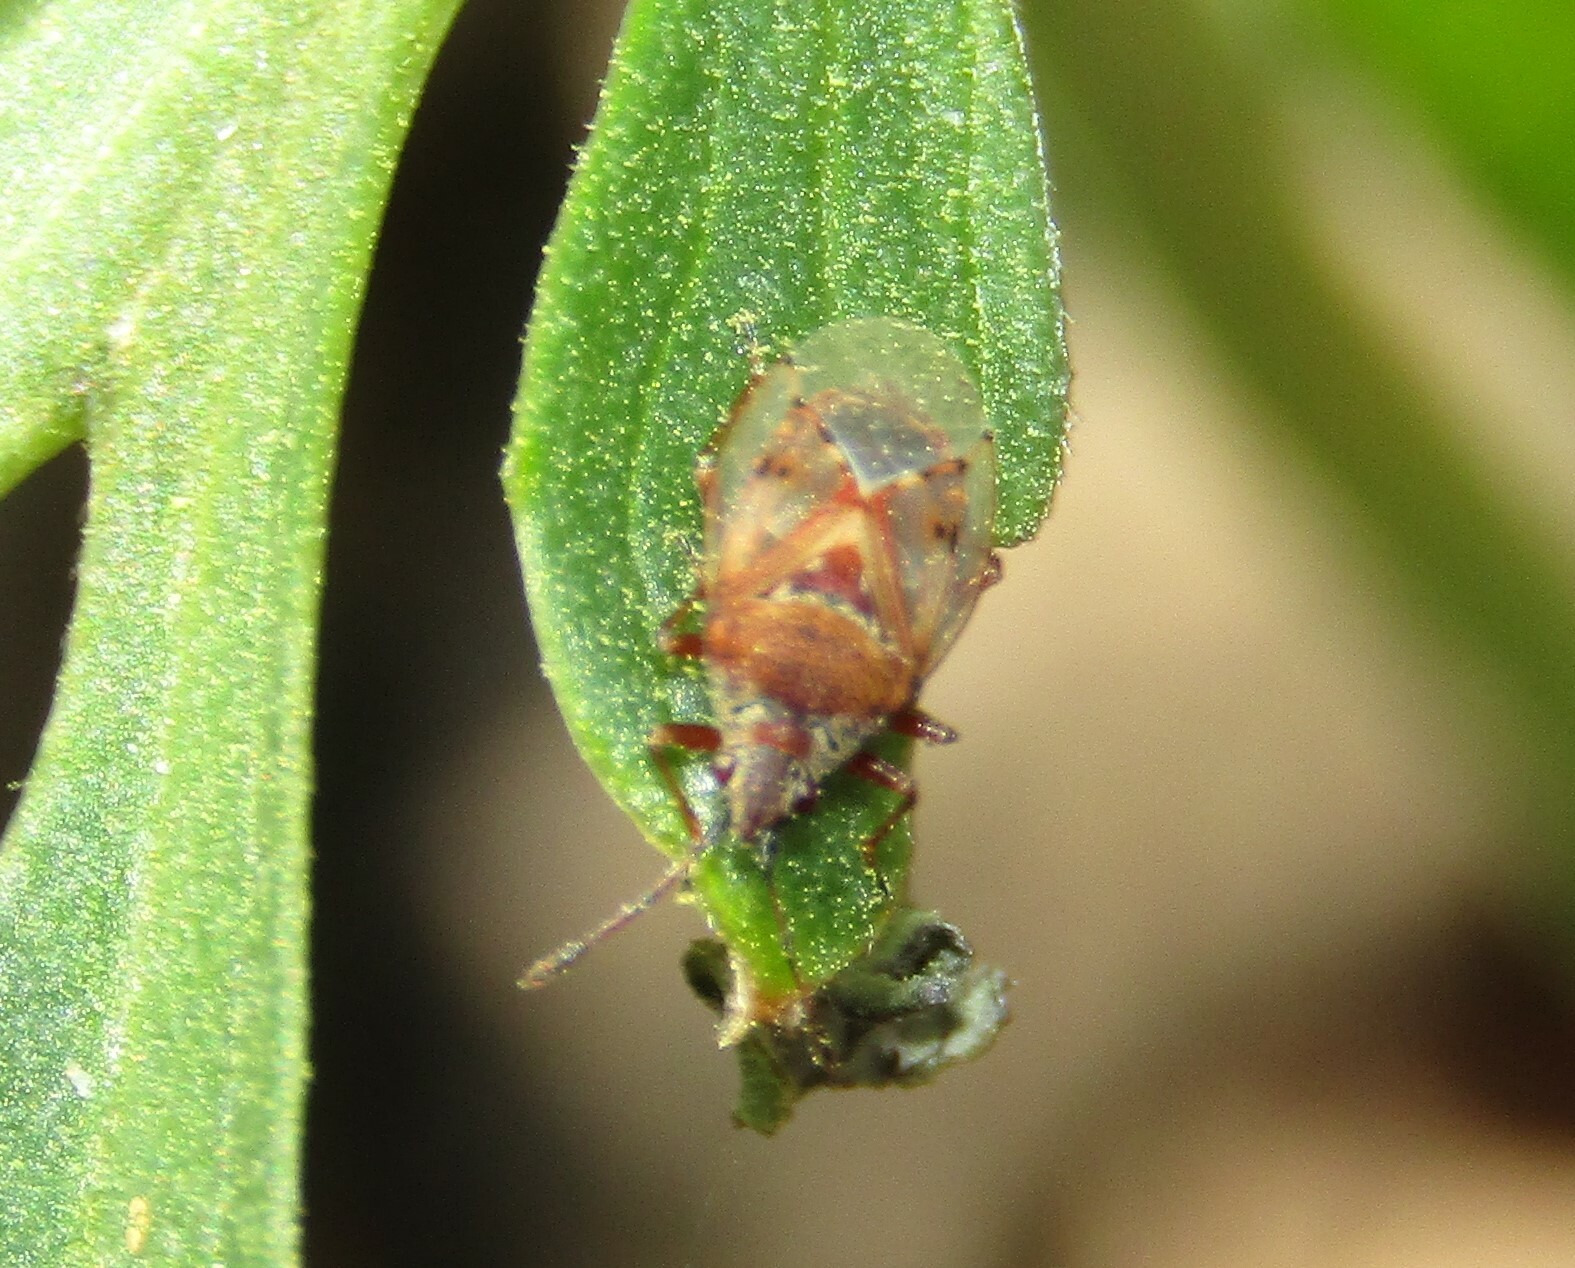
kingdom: Animalia
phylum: Arthropoda
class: Insecta
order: Hemiptera
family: Lygaeidae
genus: Kleidocerys
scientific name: Kleidocerys resedae
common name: Birch catkin bug
